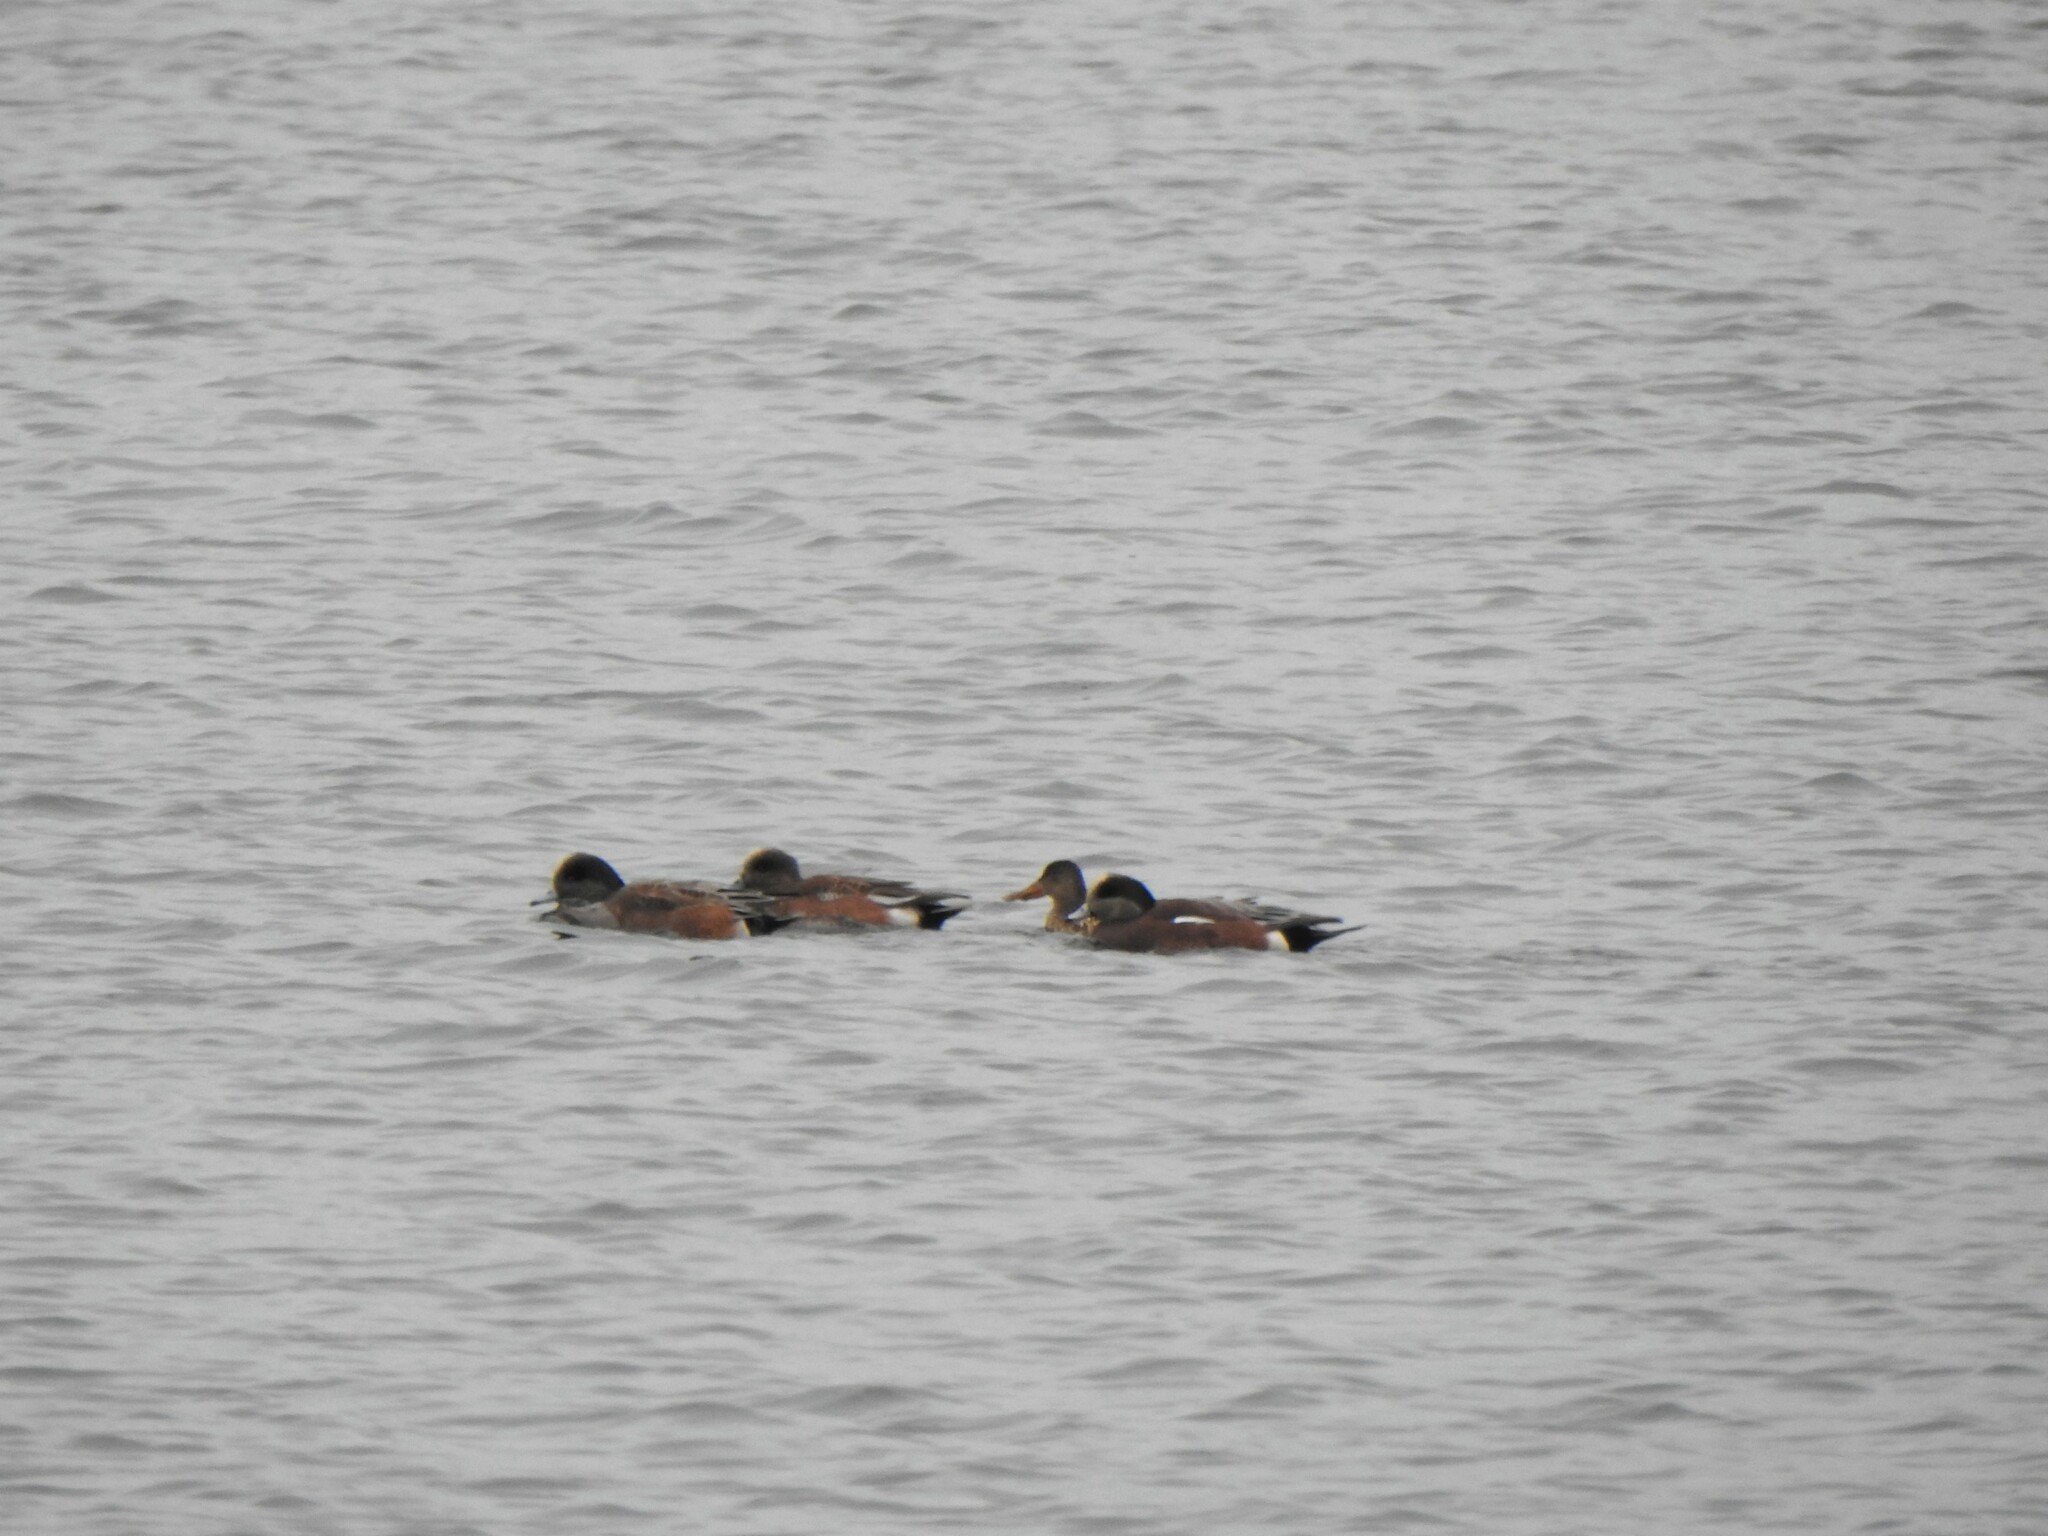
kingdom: Animalia
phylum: Chordata
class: Aves
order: Anseriformes
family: Anatidae
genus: Mareca
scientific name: Mareca americana
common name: American wigeon
